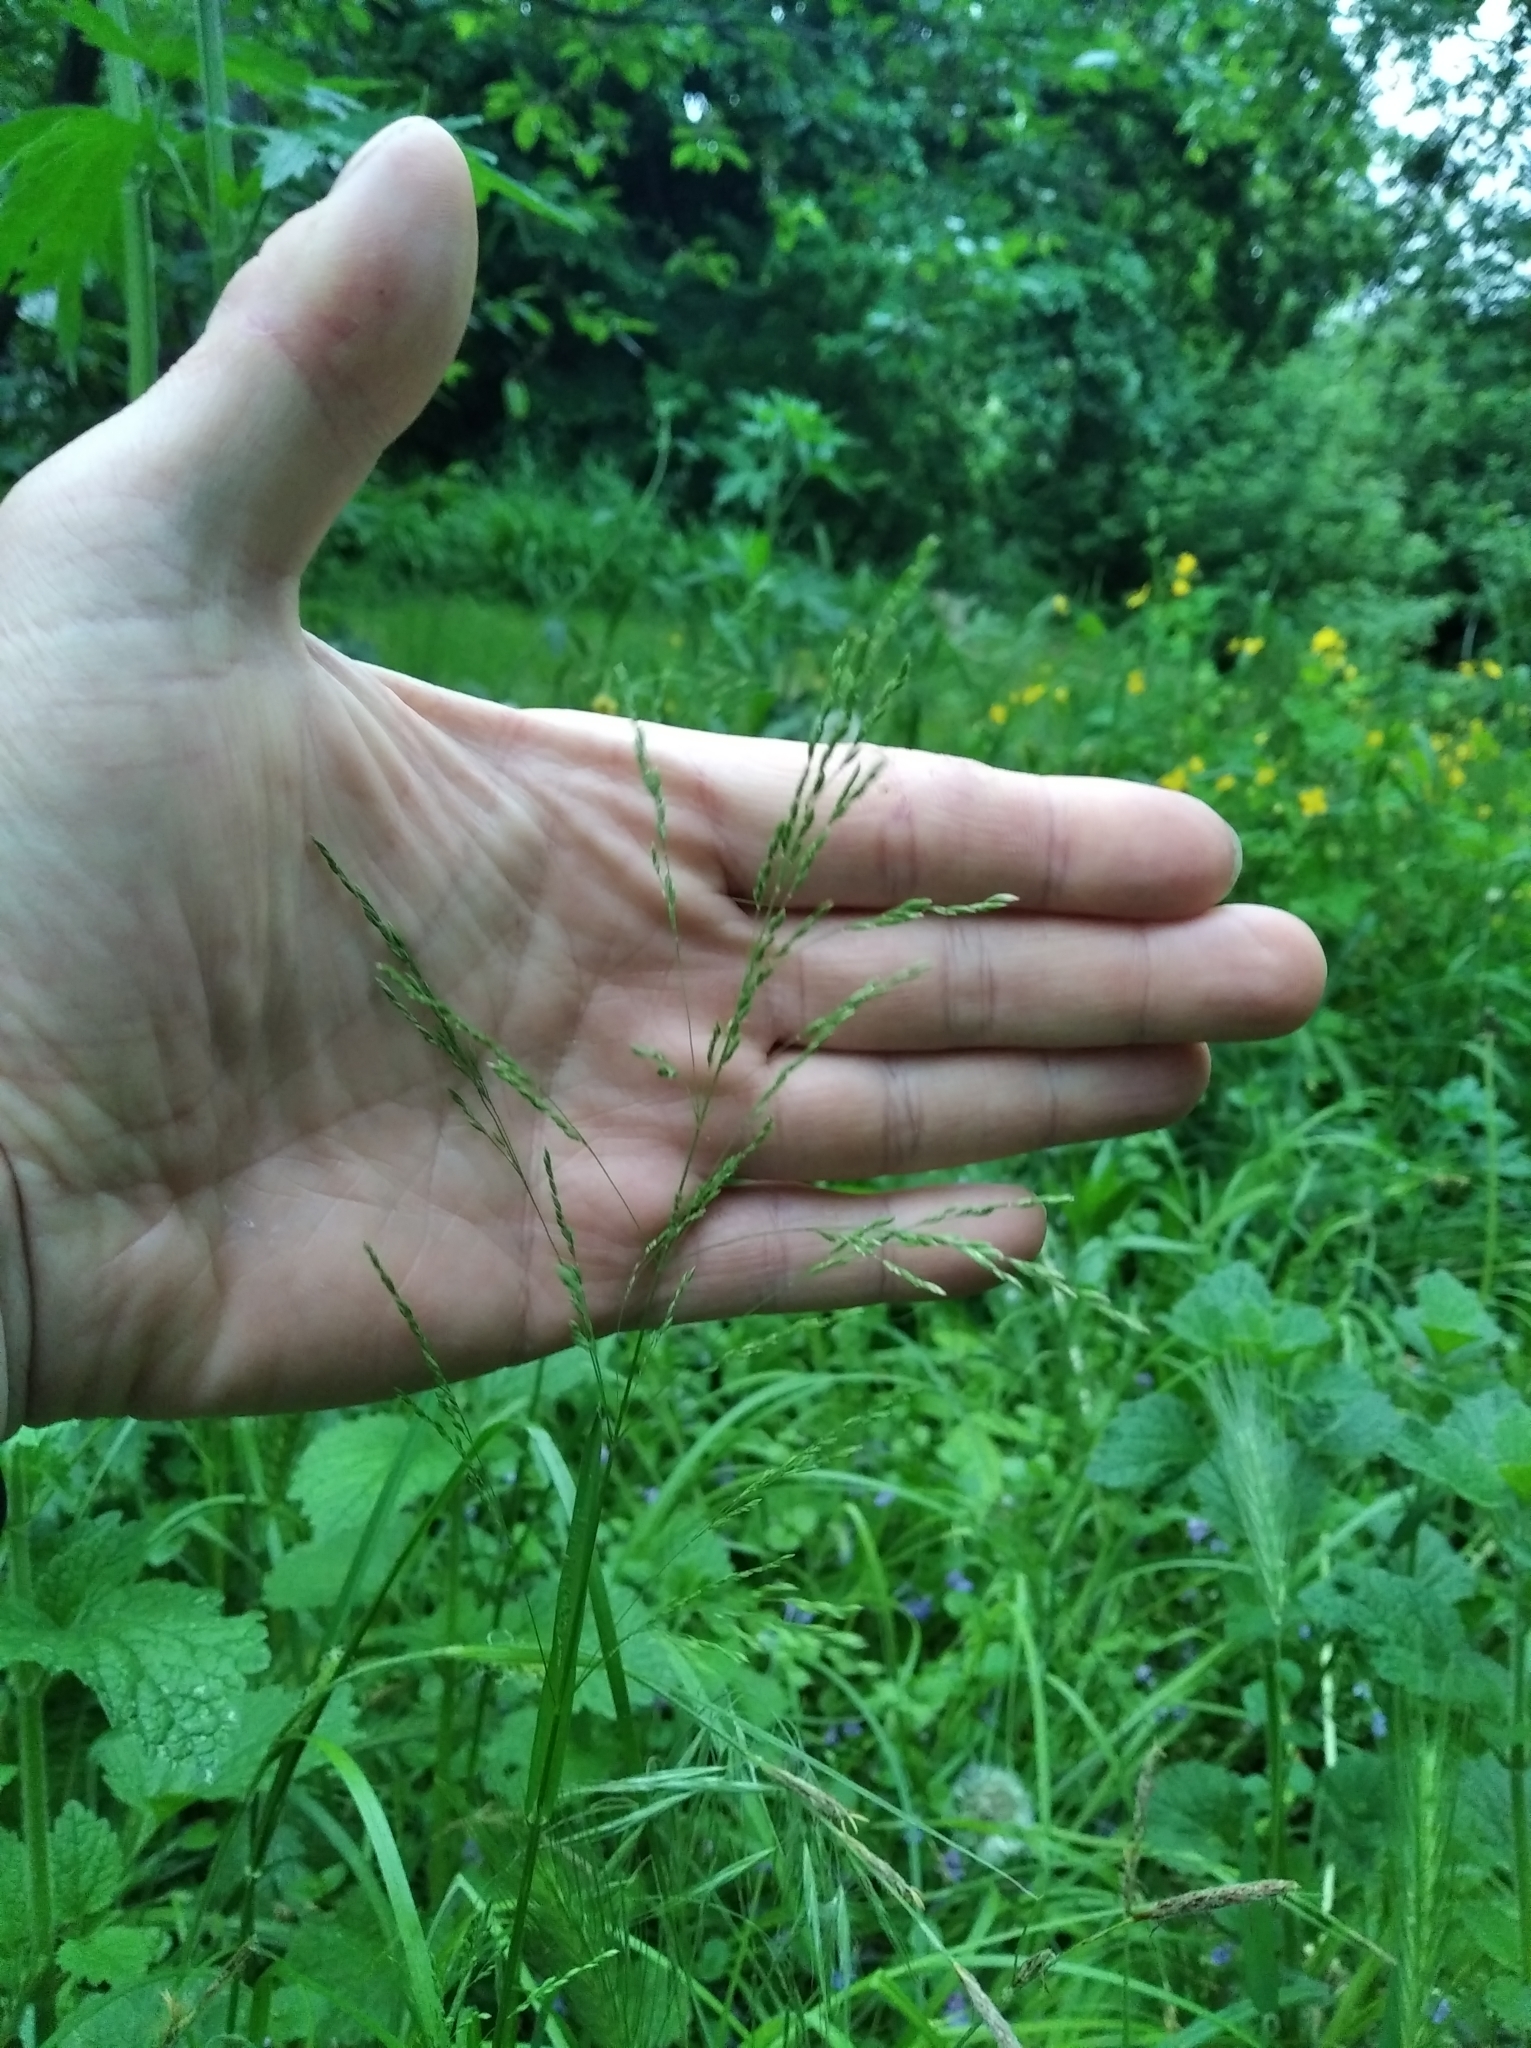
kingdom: Plantae
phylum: Tracheophyta
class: Liliopsida
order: Poales
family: Poaceae
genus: Poa
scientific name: Poa nemoralis
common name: Wood bluegrass
